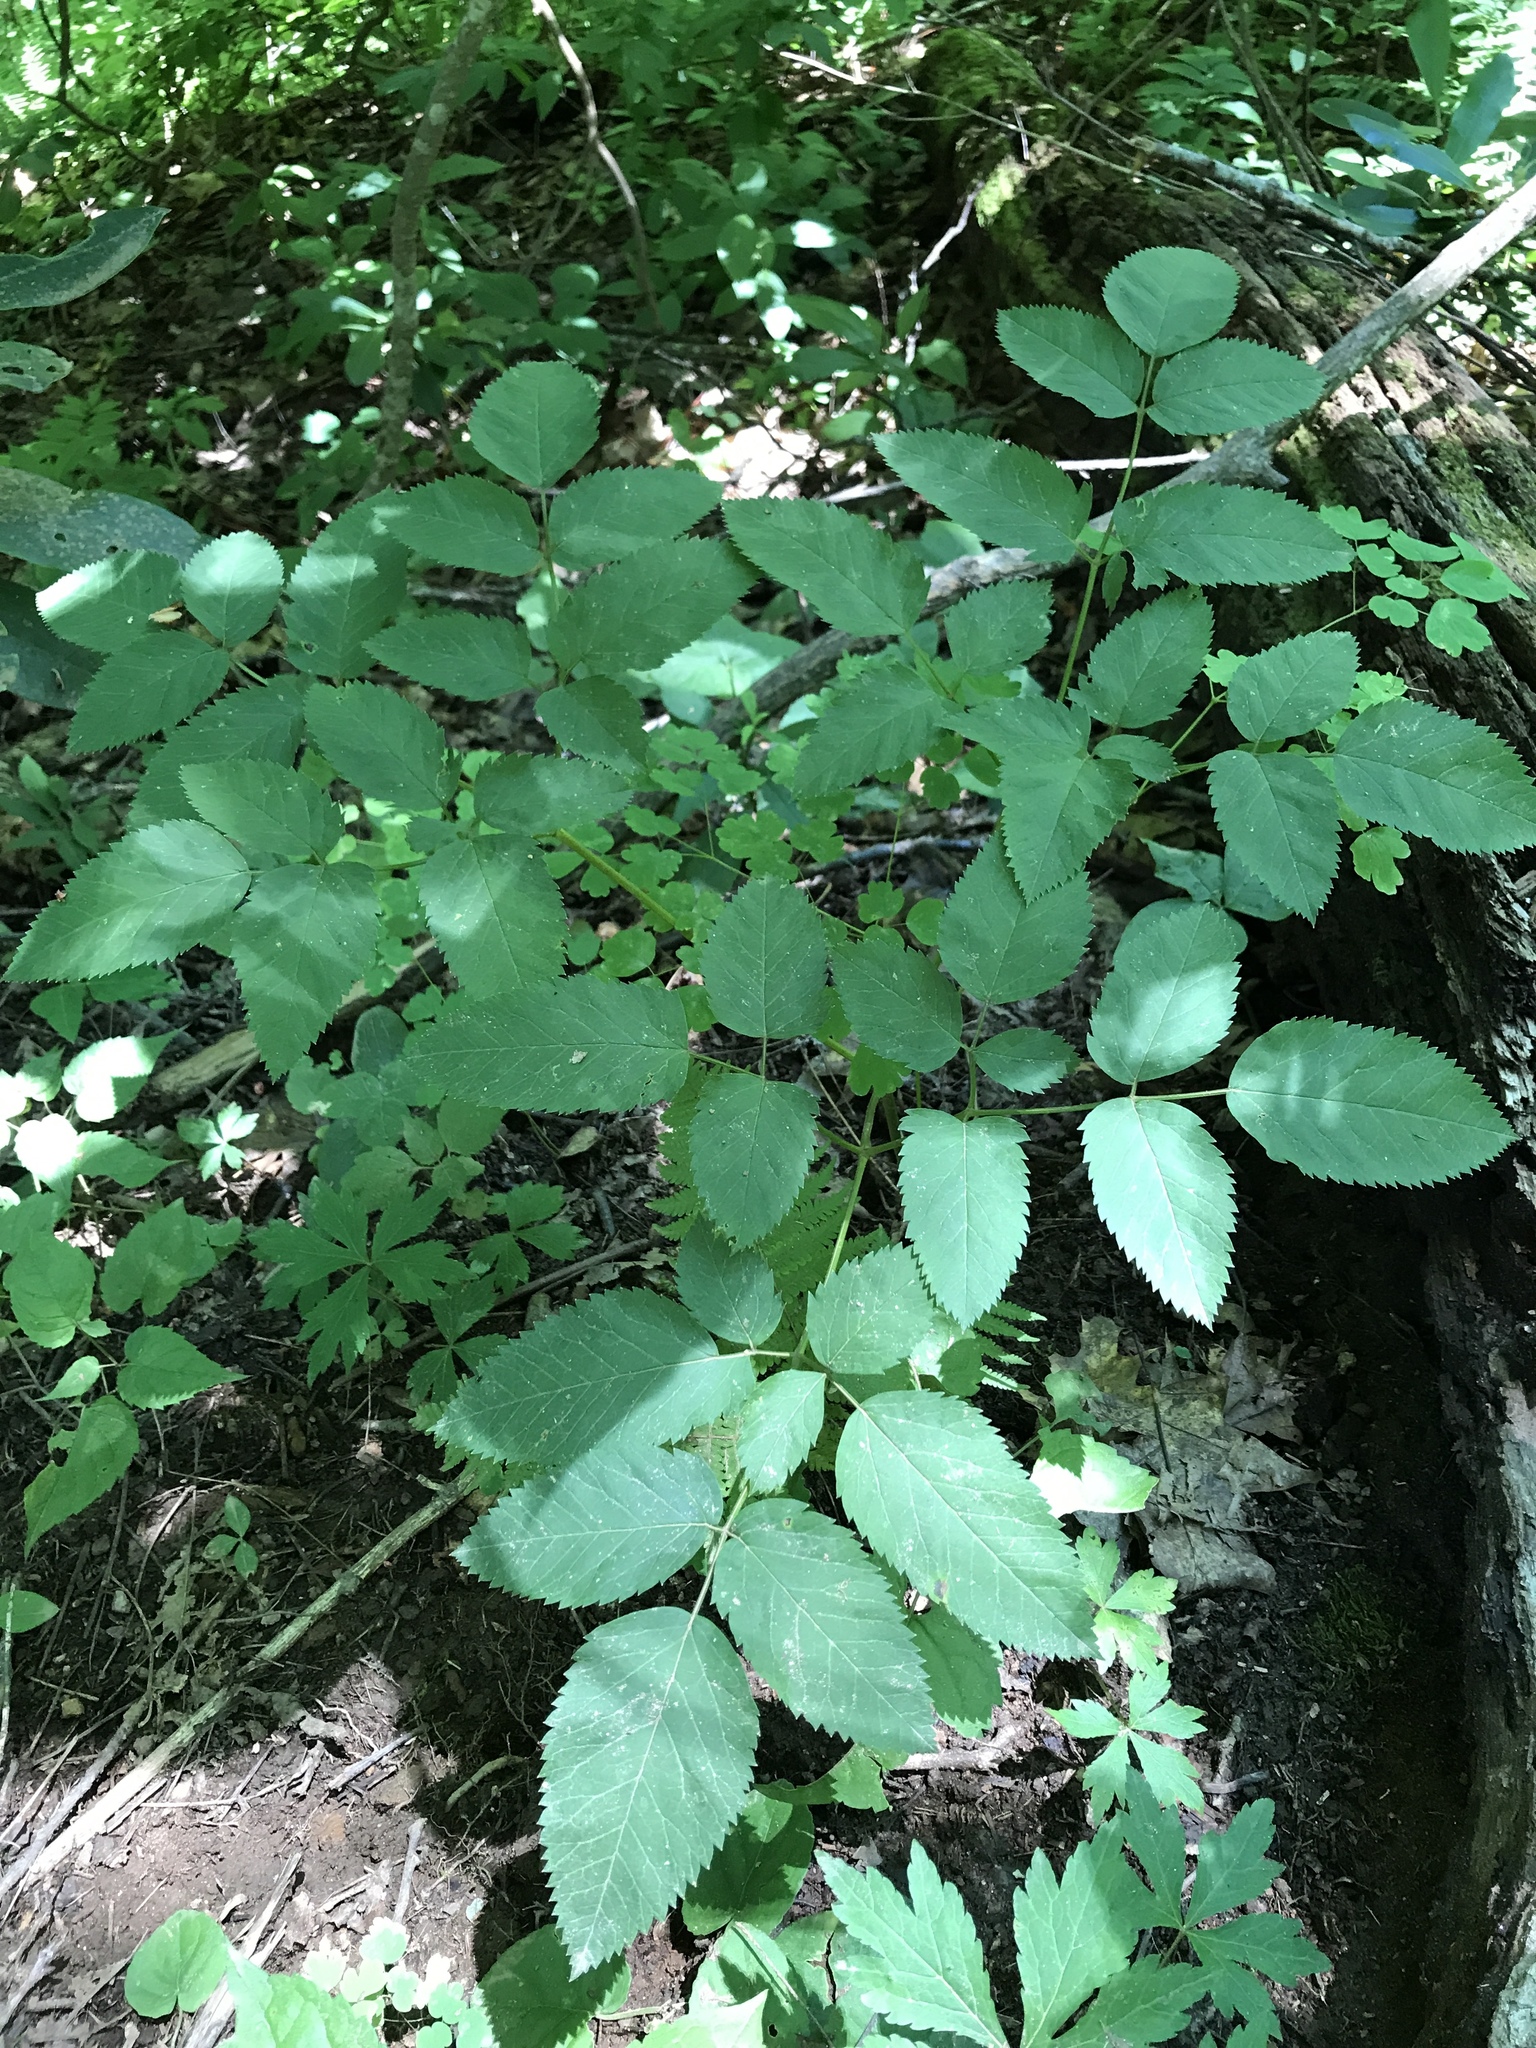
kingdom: Plantae
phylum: Tracheophyta
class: Magnoliopsida
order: Apiales
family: Apiaceae
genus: Ligusticum
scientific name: Ligusticum canadense
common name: American lovage
